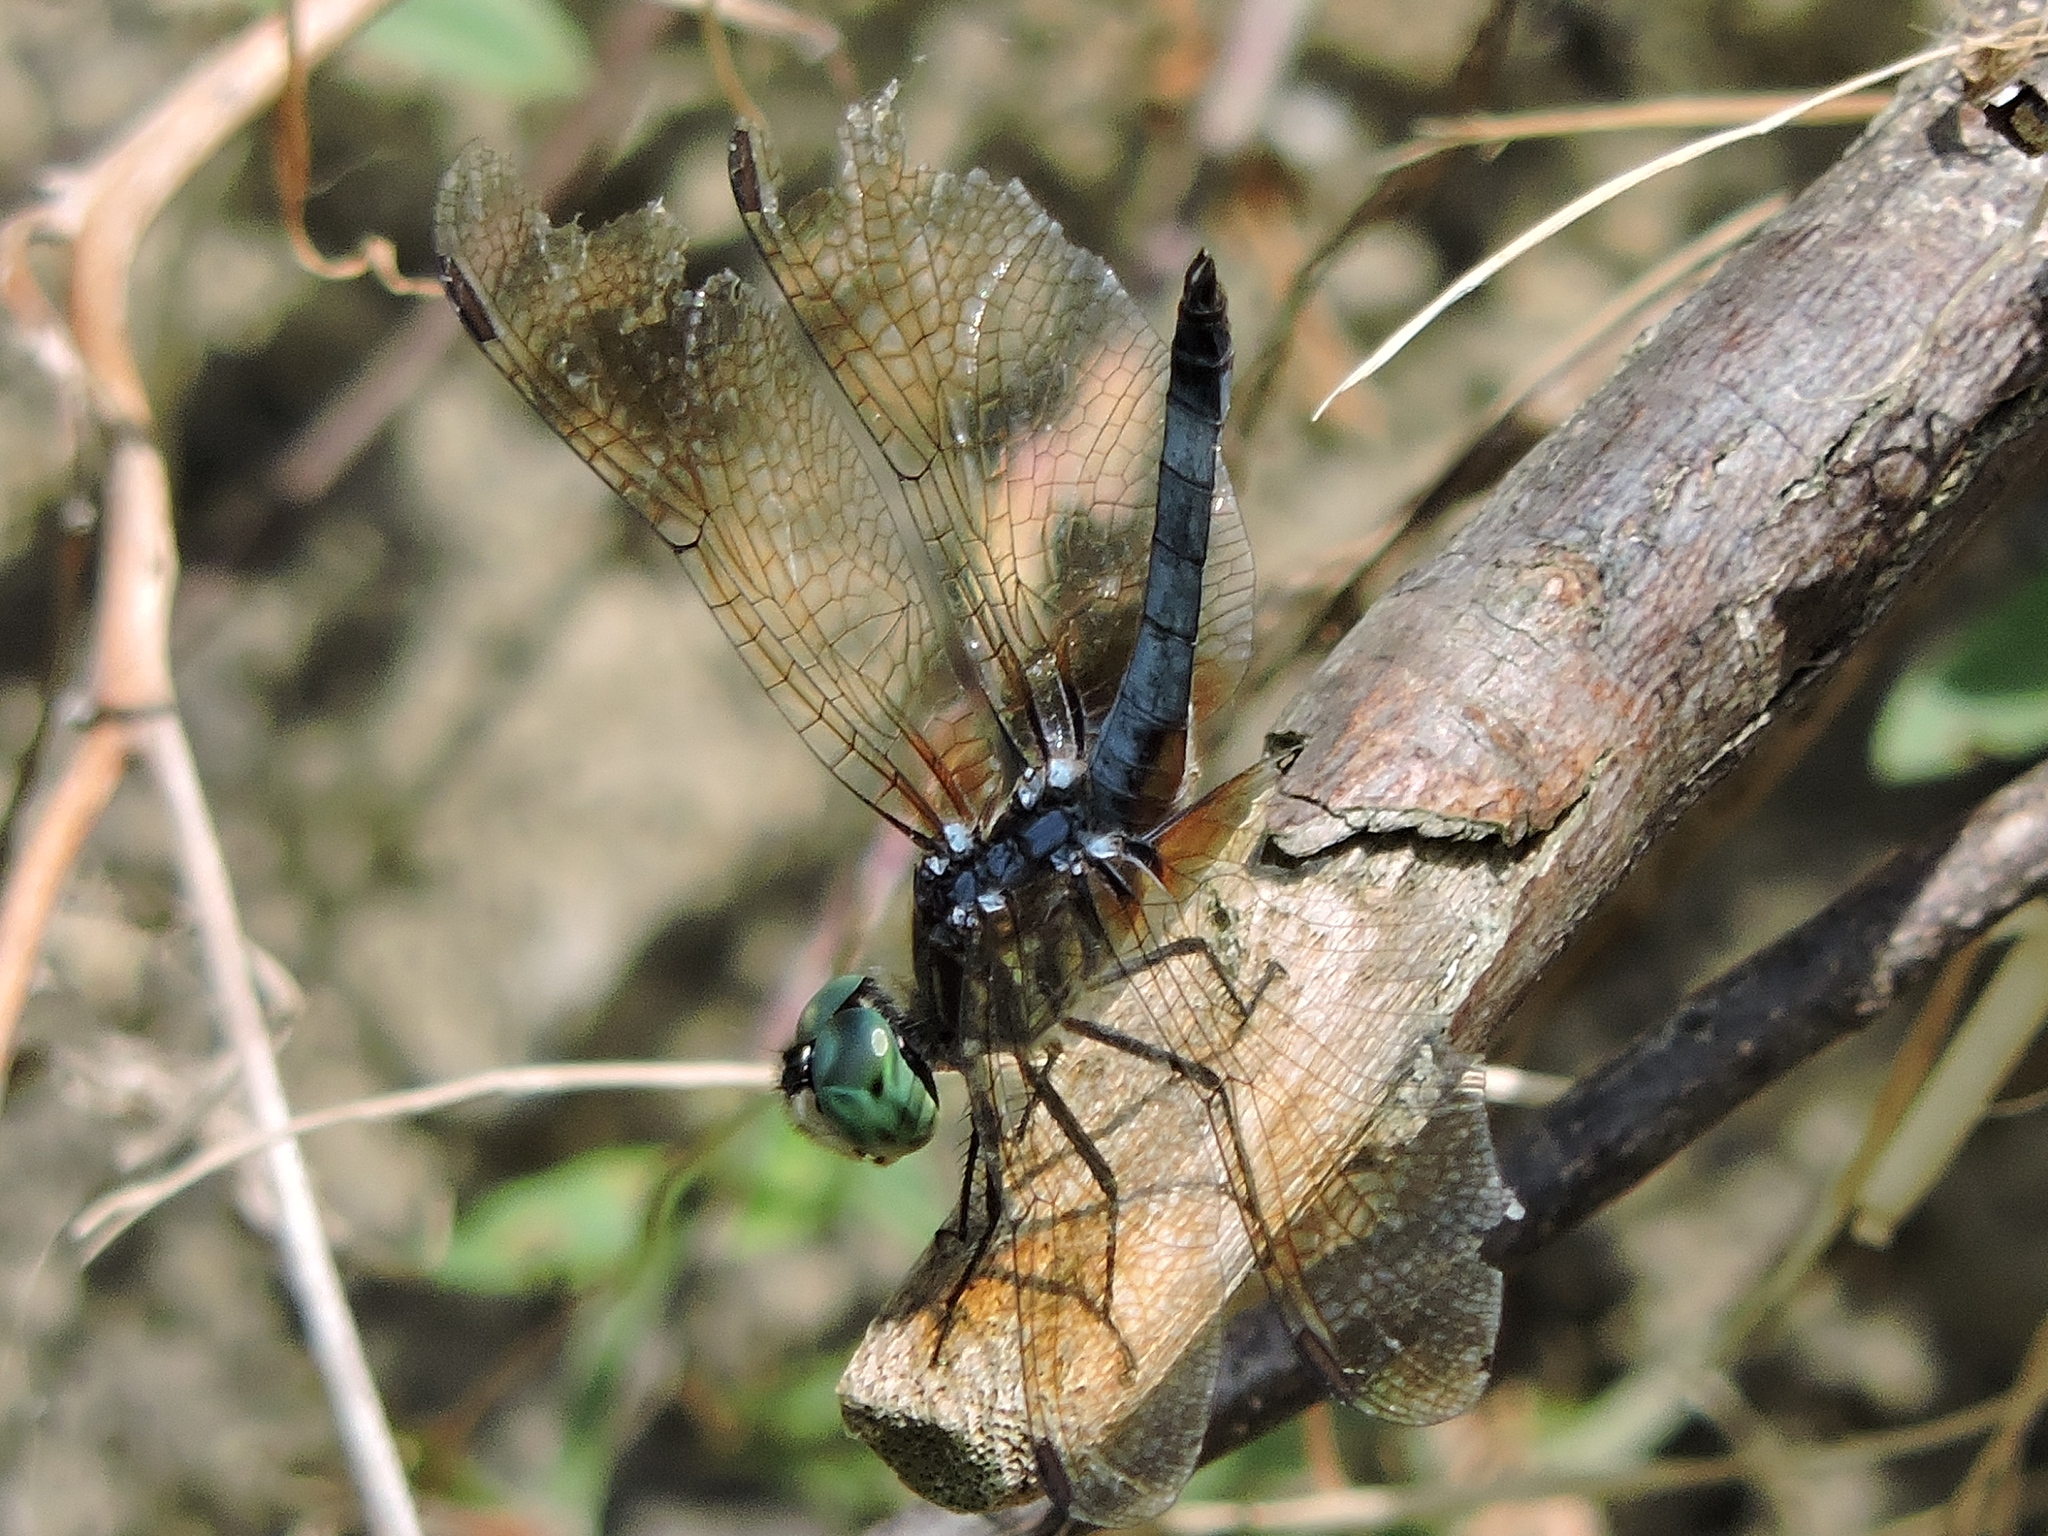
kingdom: Animalia
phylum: Arthropoda
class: Insecta
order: Odonata
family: Libellulidae
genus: Pachydiplax
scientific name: Pachydiplax longipennis
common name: Blue dasher
